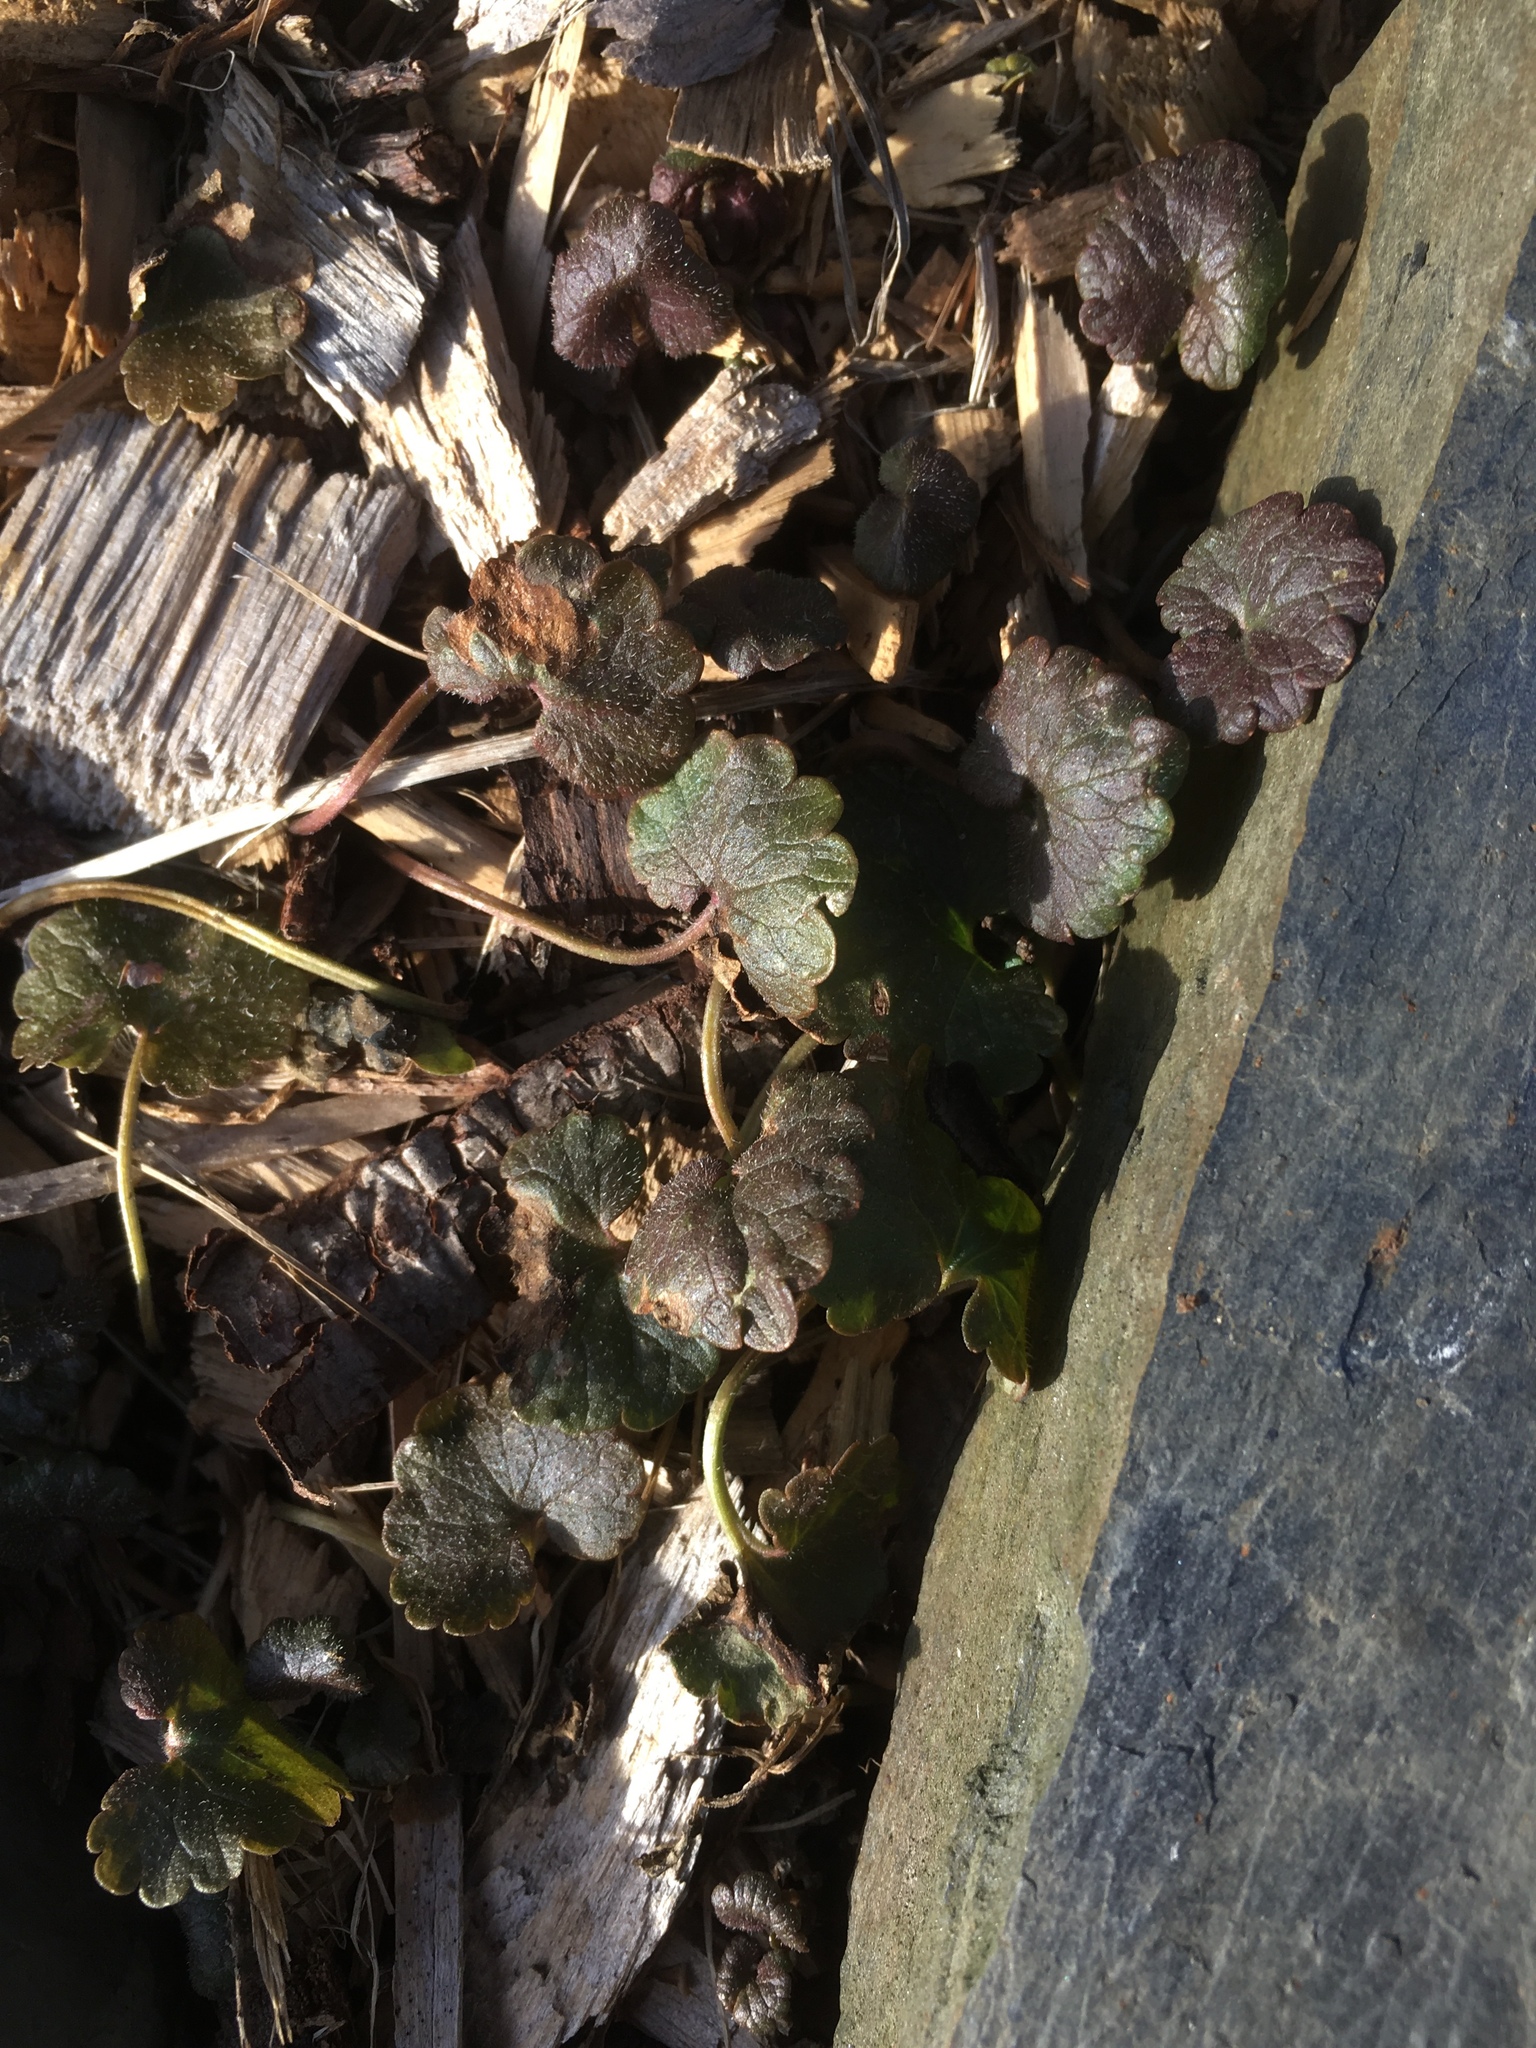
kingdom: Plantae
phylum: Tracheophyta
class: Magnoliopsida
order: Lamiales
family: Lamiaceae
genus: Glechoma
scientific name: Glechoma hederacea
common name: Ground ivy
